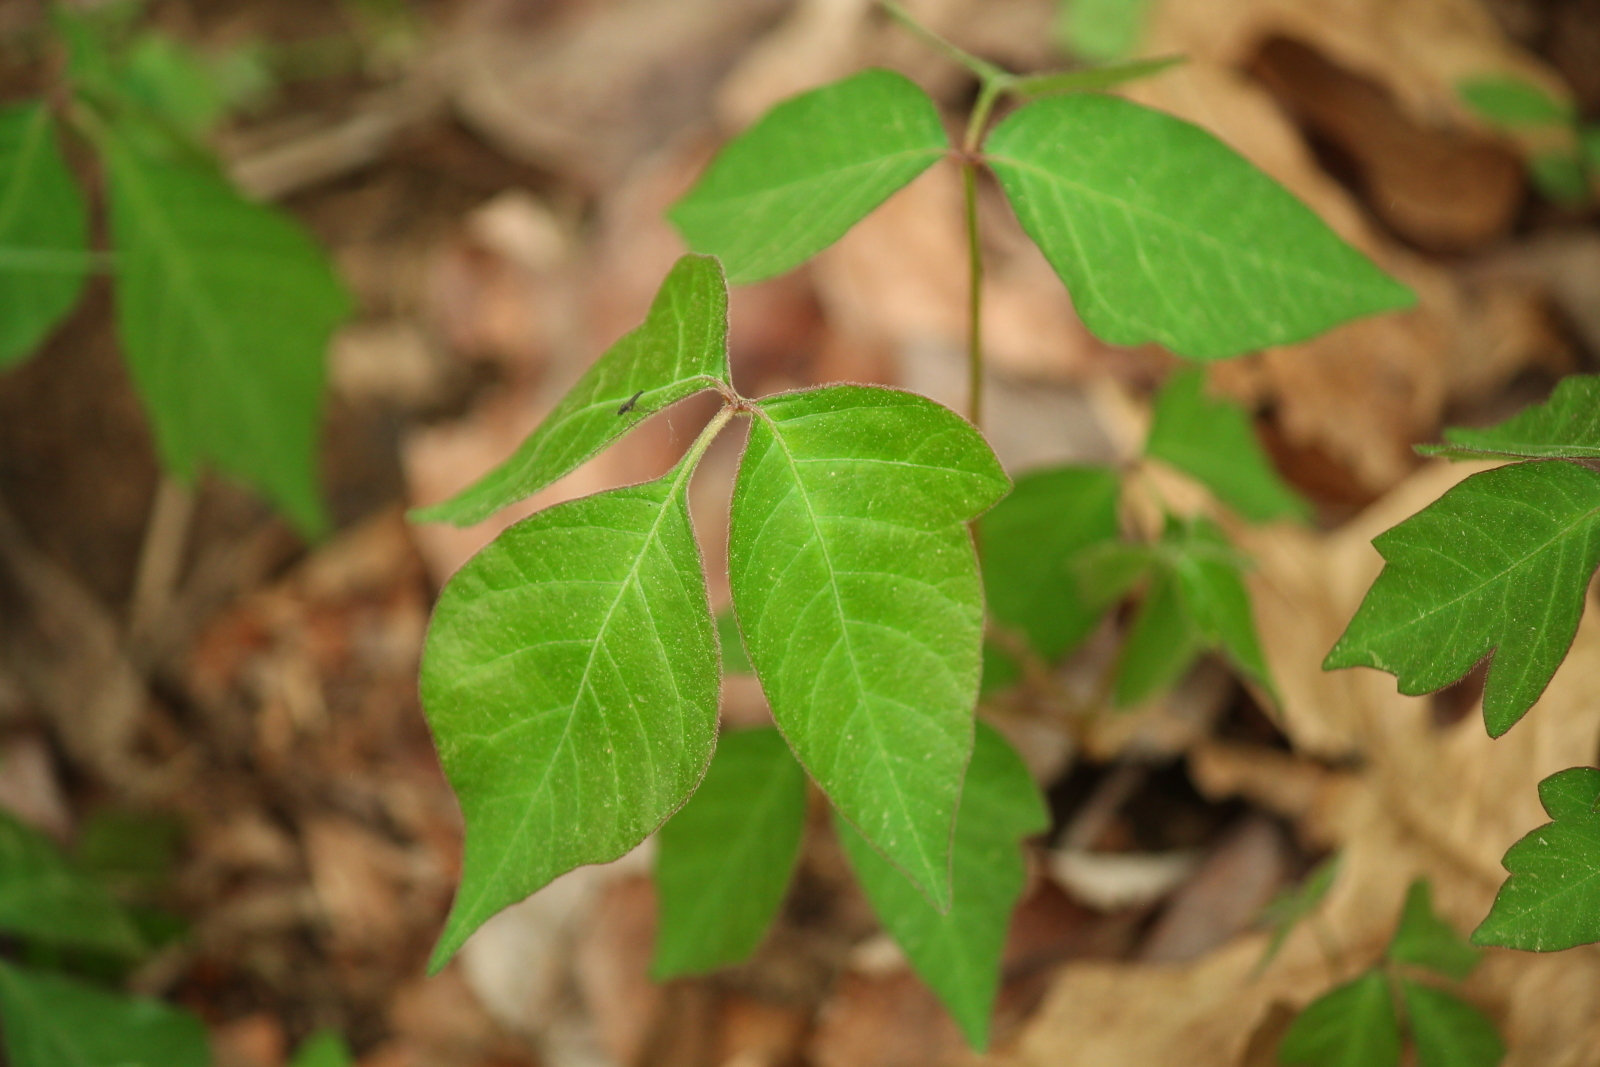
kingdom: Plantae
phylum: Tracheophyta
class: Magnoliopsida
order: Sapindales
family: Anacardiaceae
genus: Toxicodendron
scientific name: Toxicodendron radicans
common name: Poison ivy
